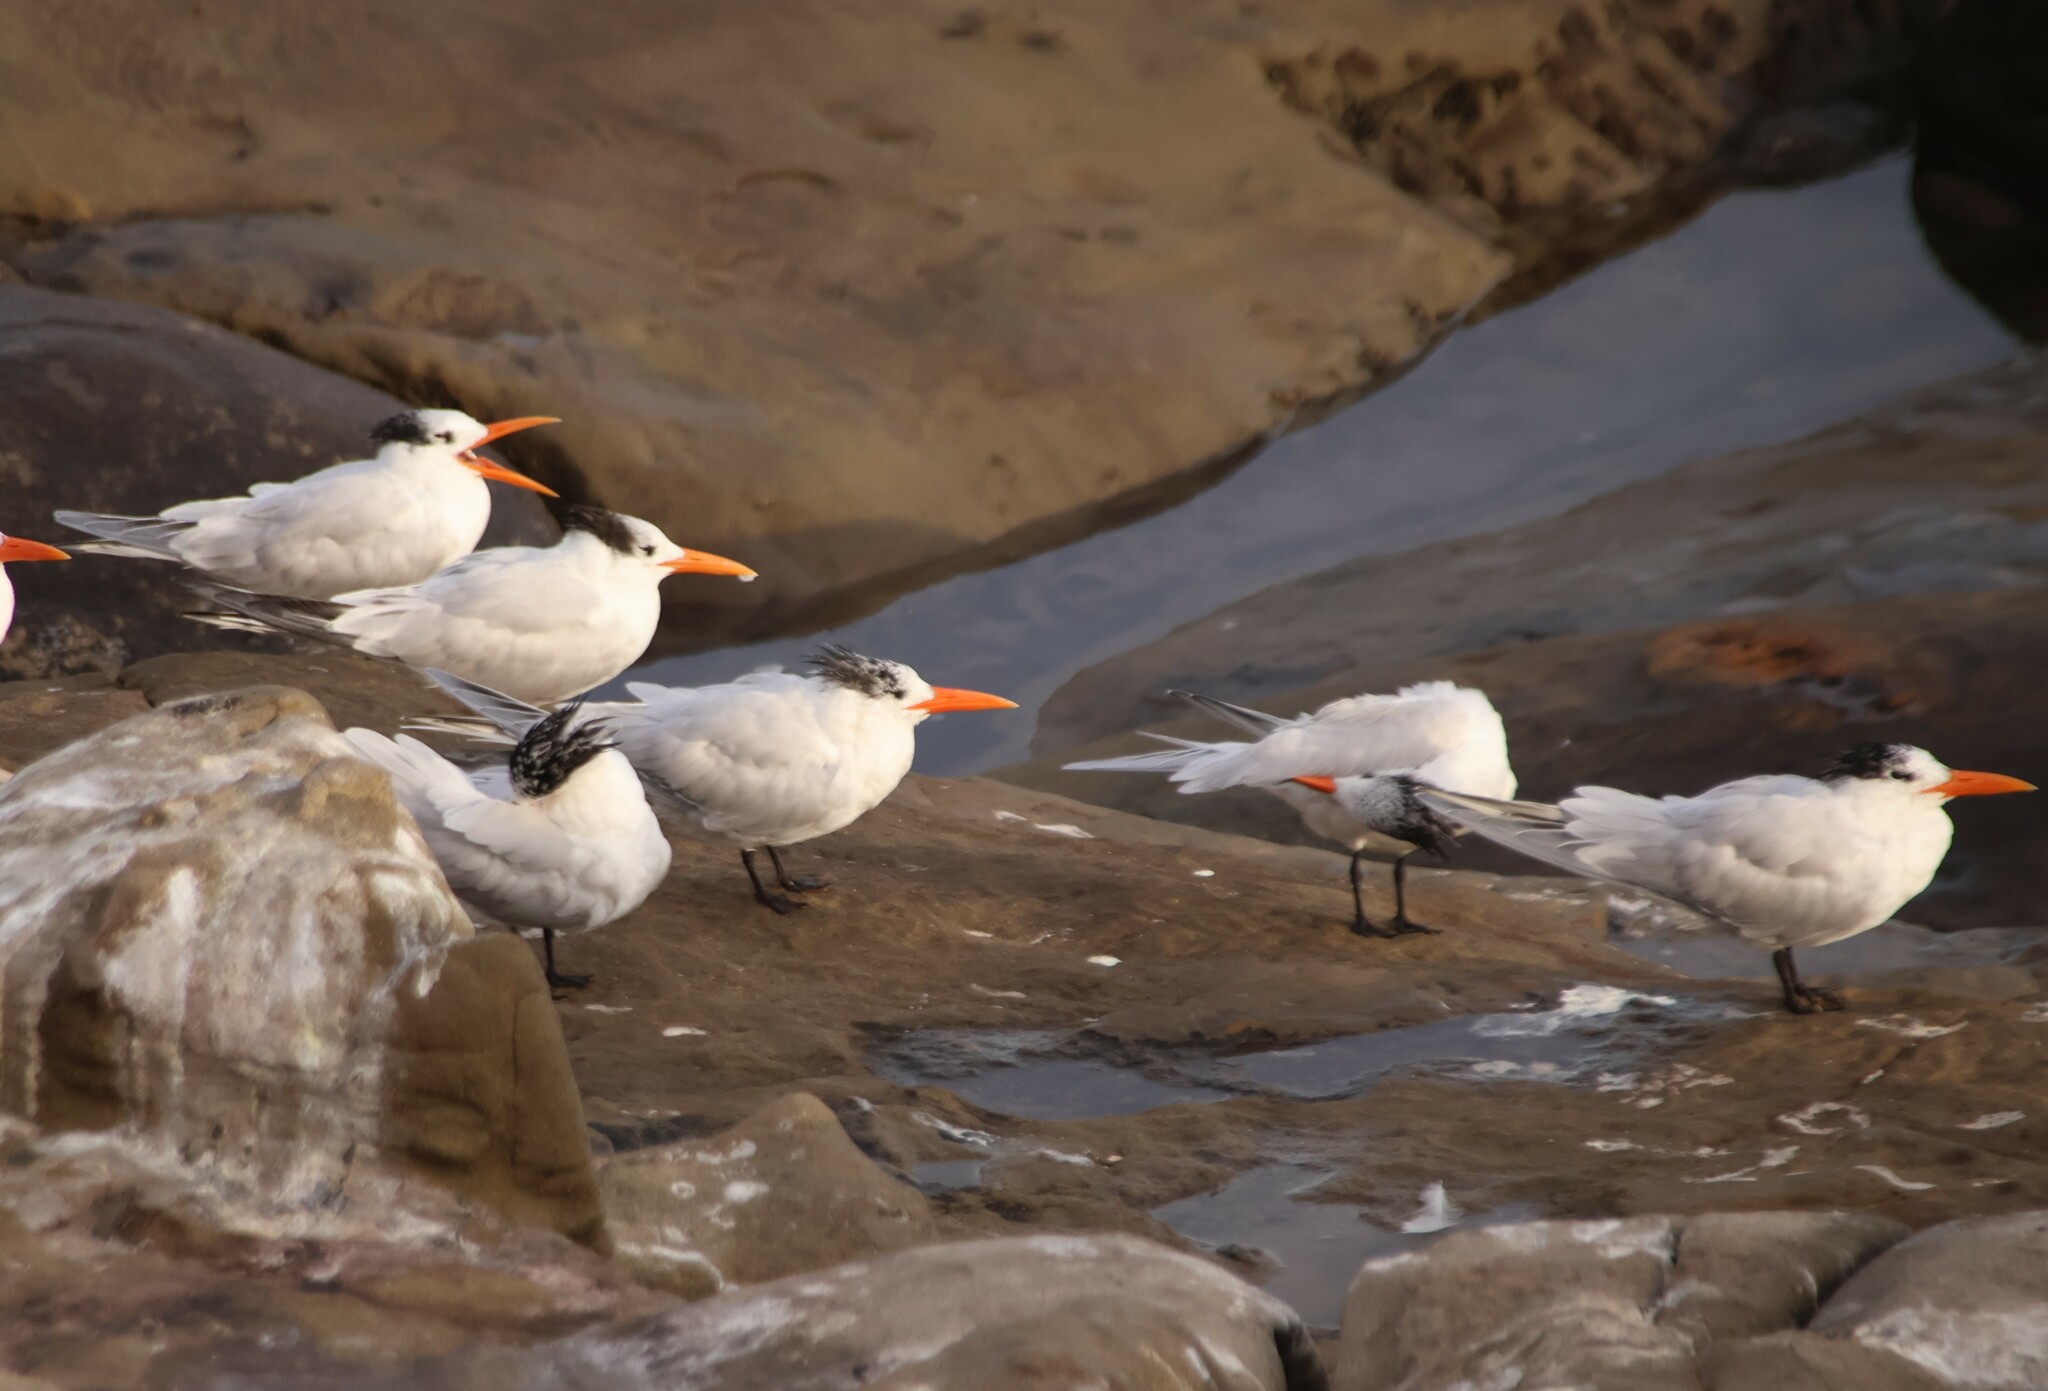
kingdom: Animalia
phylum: Chordata
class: Aves
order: Charadriiformes
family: Laridae
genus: Thalasseus
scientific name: Thalasseus maximus
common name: Royal tern
